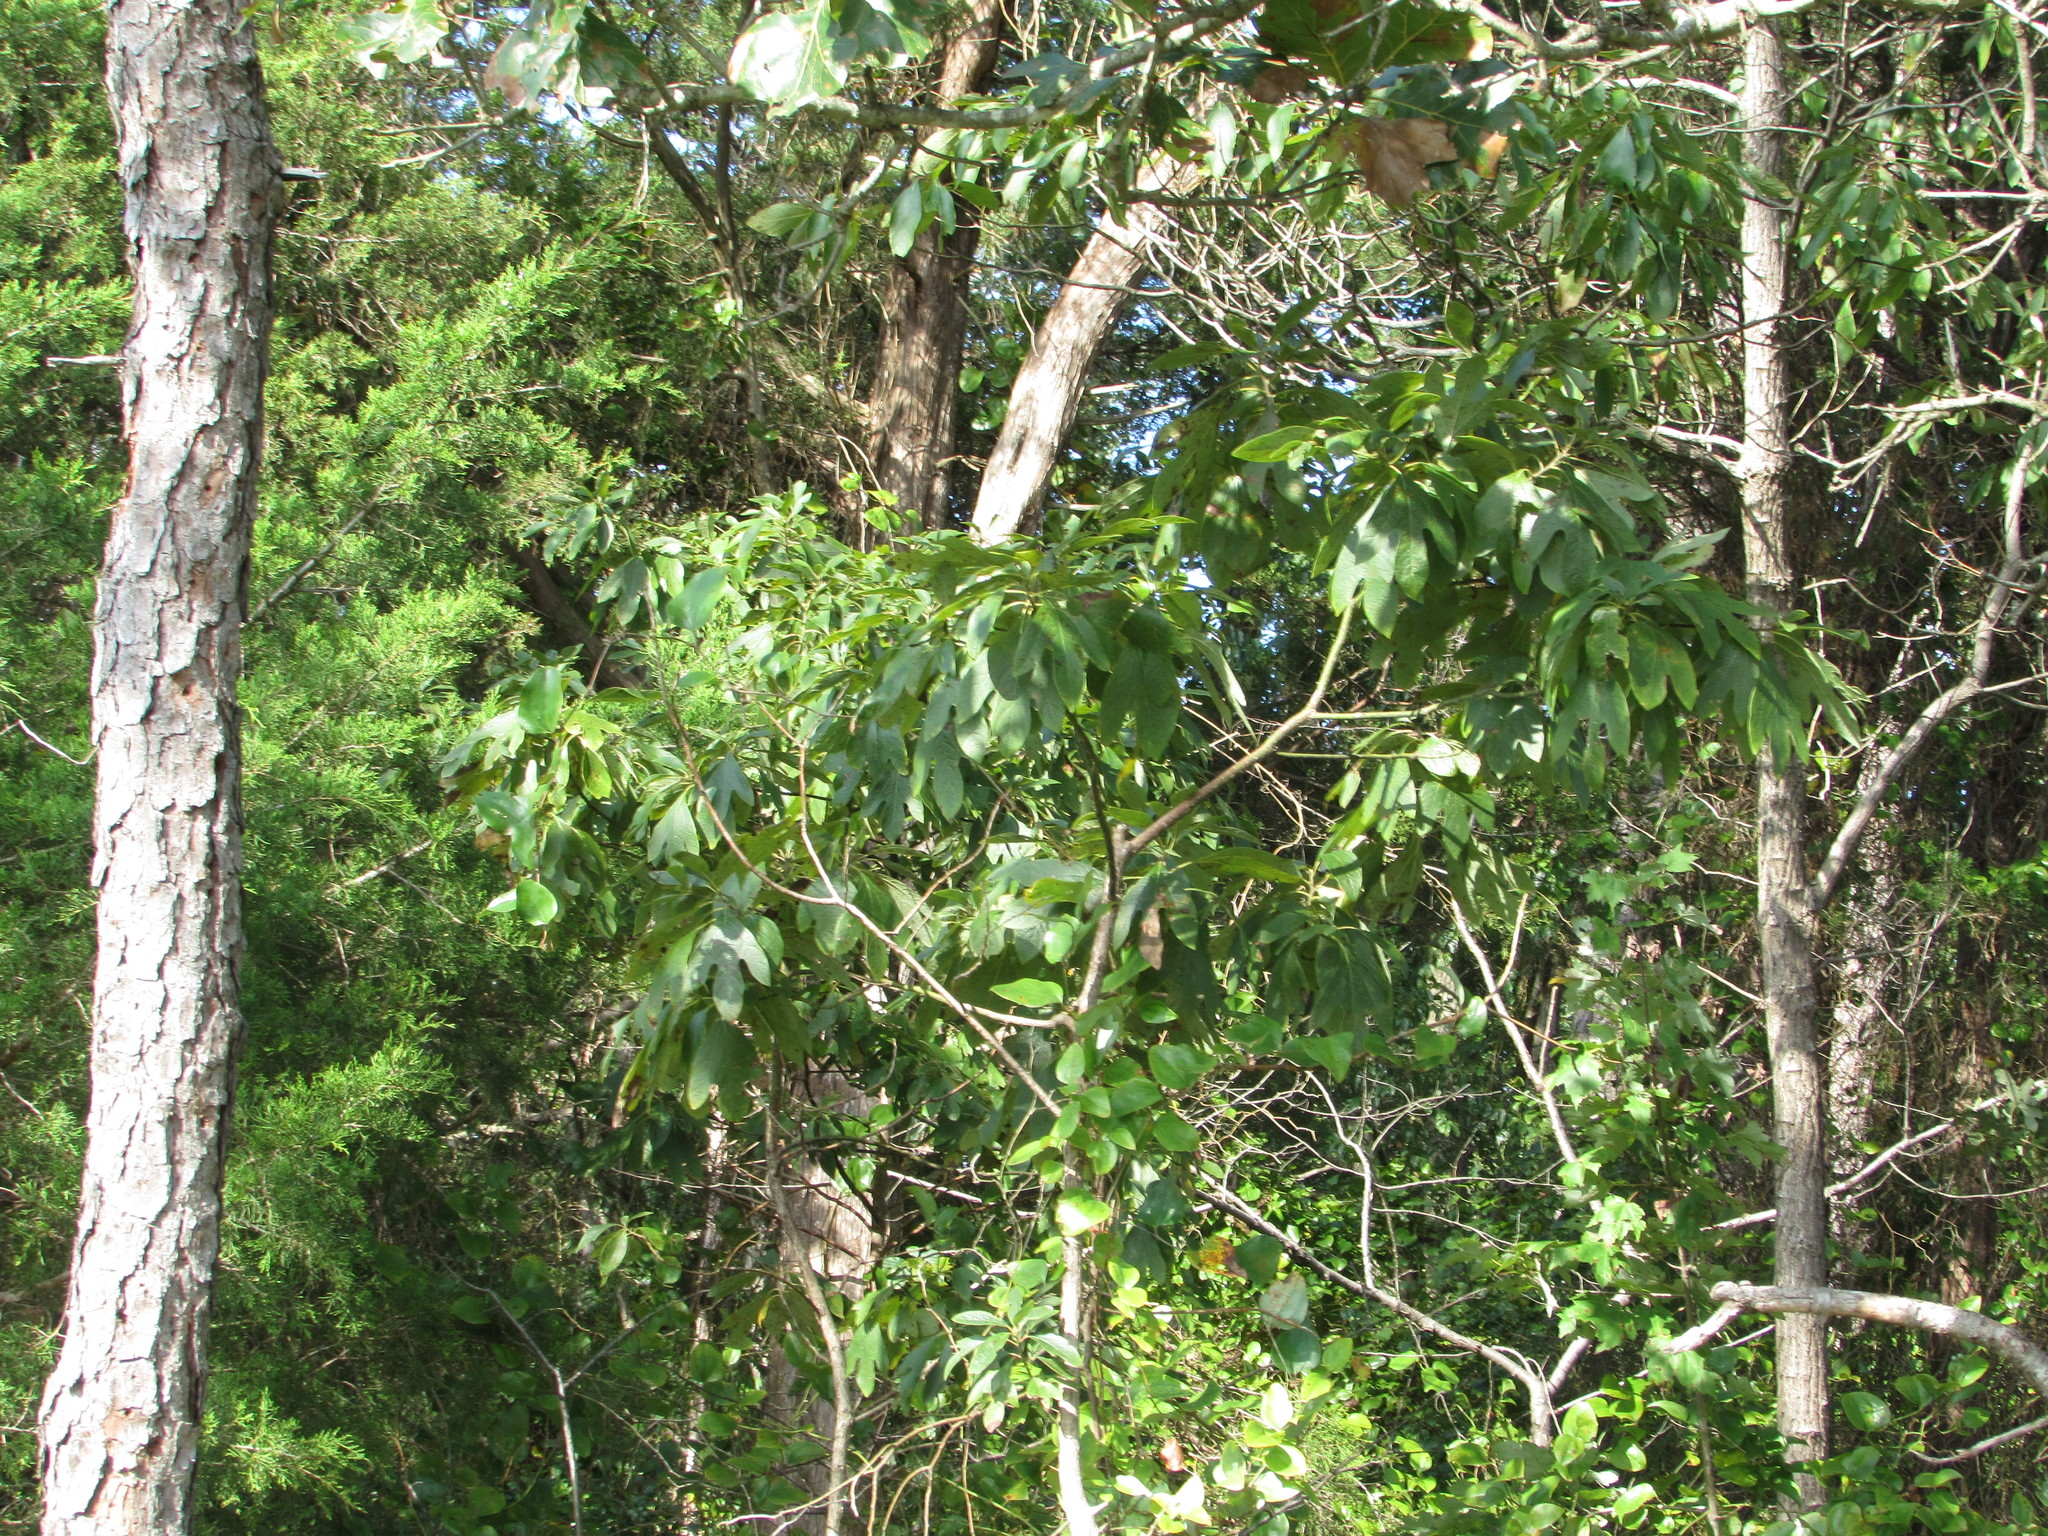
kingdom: Plantae
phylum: Tracheophyta
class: Magnoliopsida
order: Laurales
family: Lauraceae
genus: Sassafras
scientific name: Sassafras albidum
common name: Sassafras
